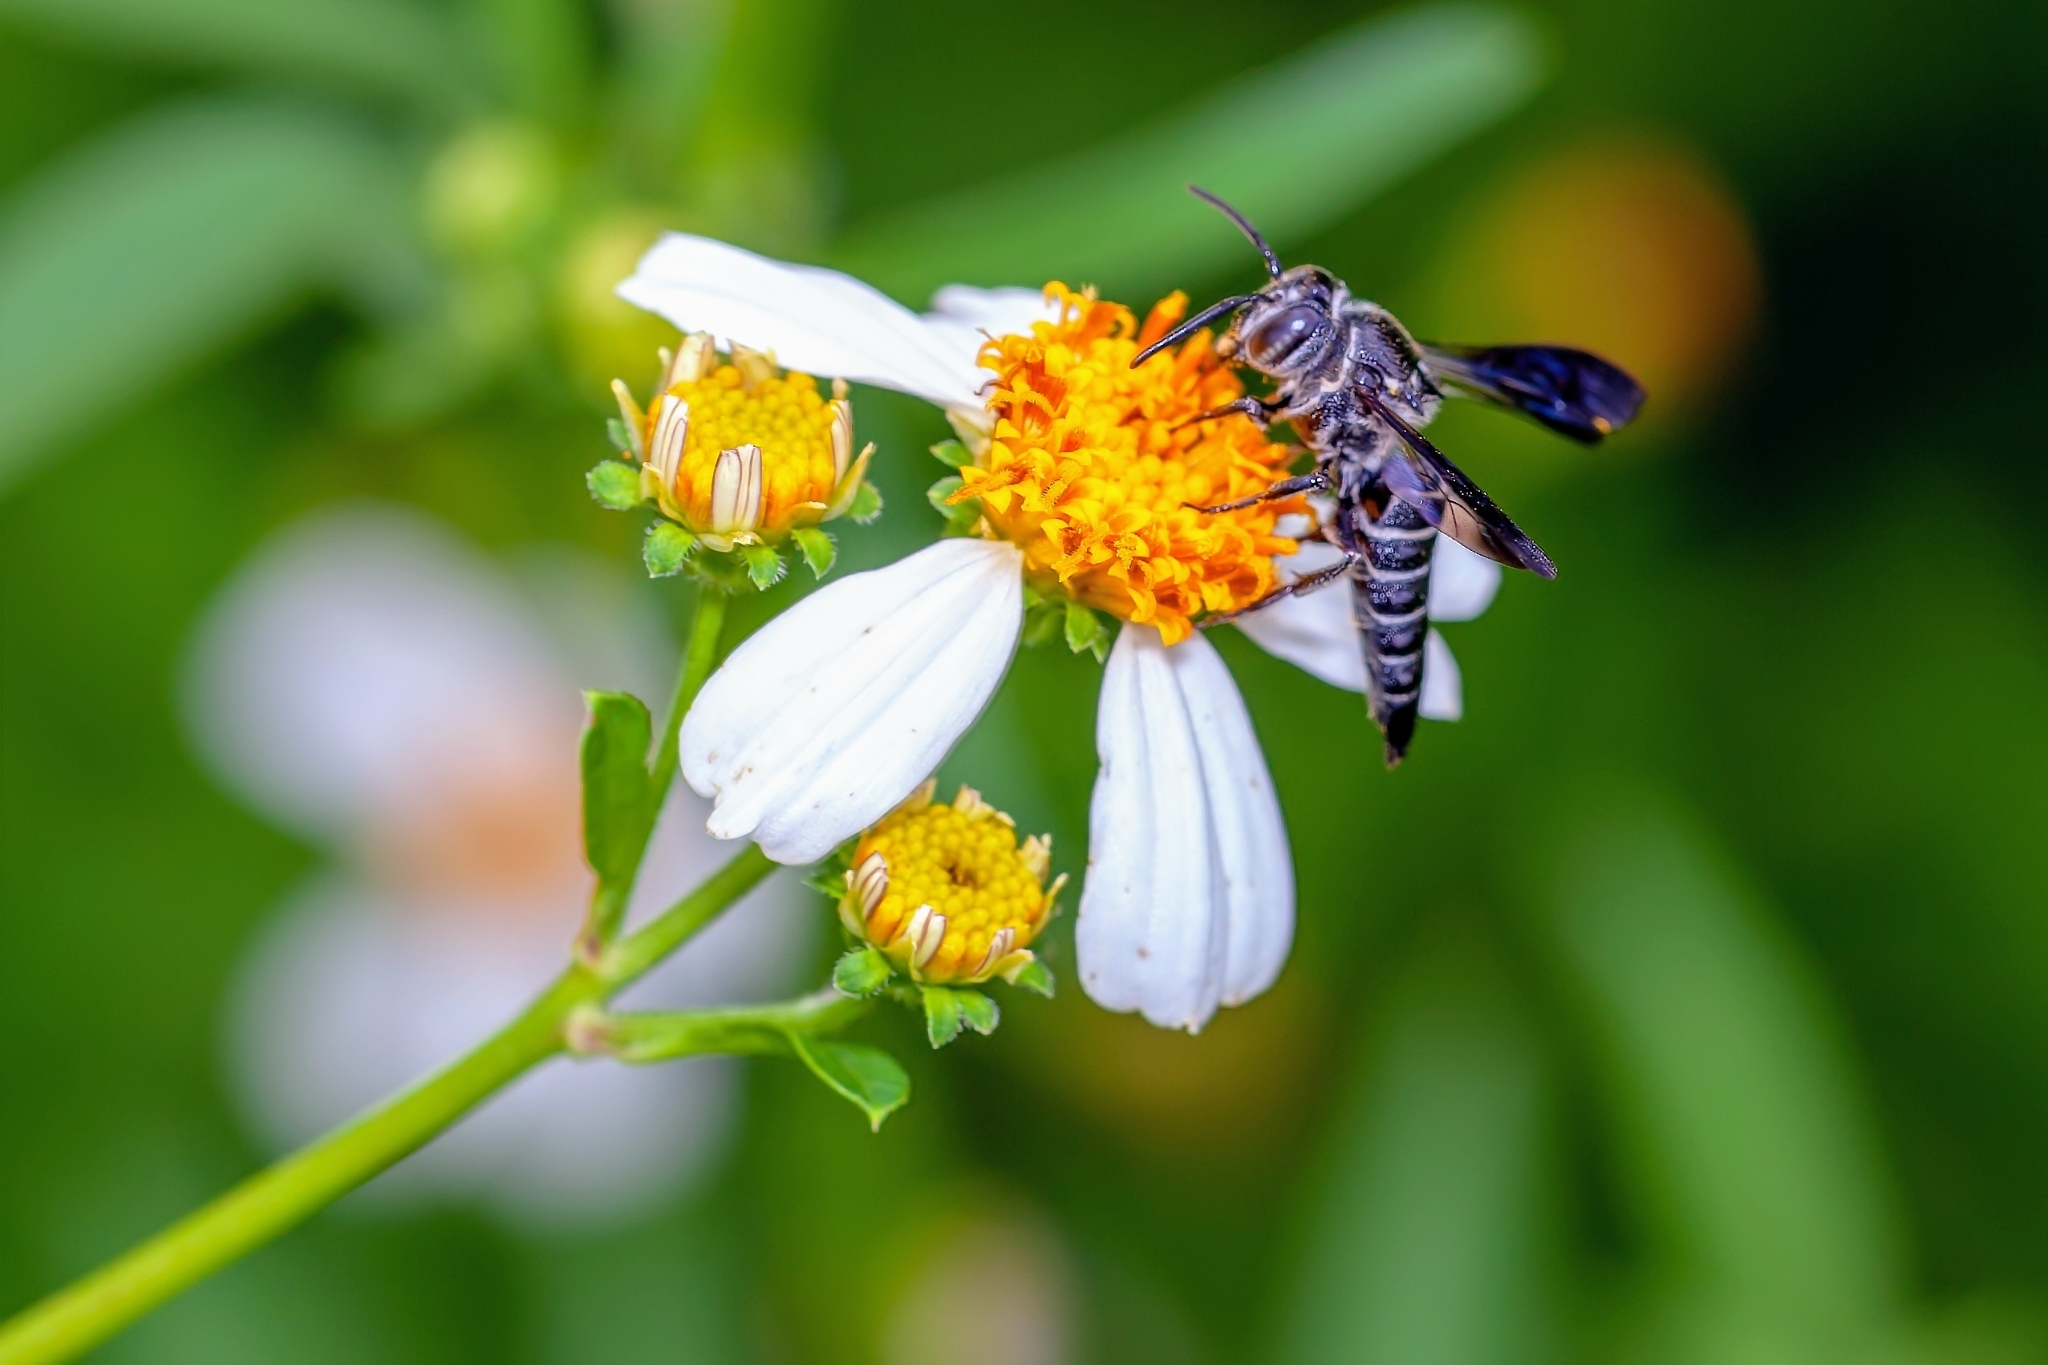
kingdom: Animalia
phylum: Arthropoda
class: Insecta
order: Hymenoptera
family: Megachilidae
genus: Coelioxys
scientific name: Coelioxys dolichos
